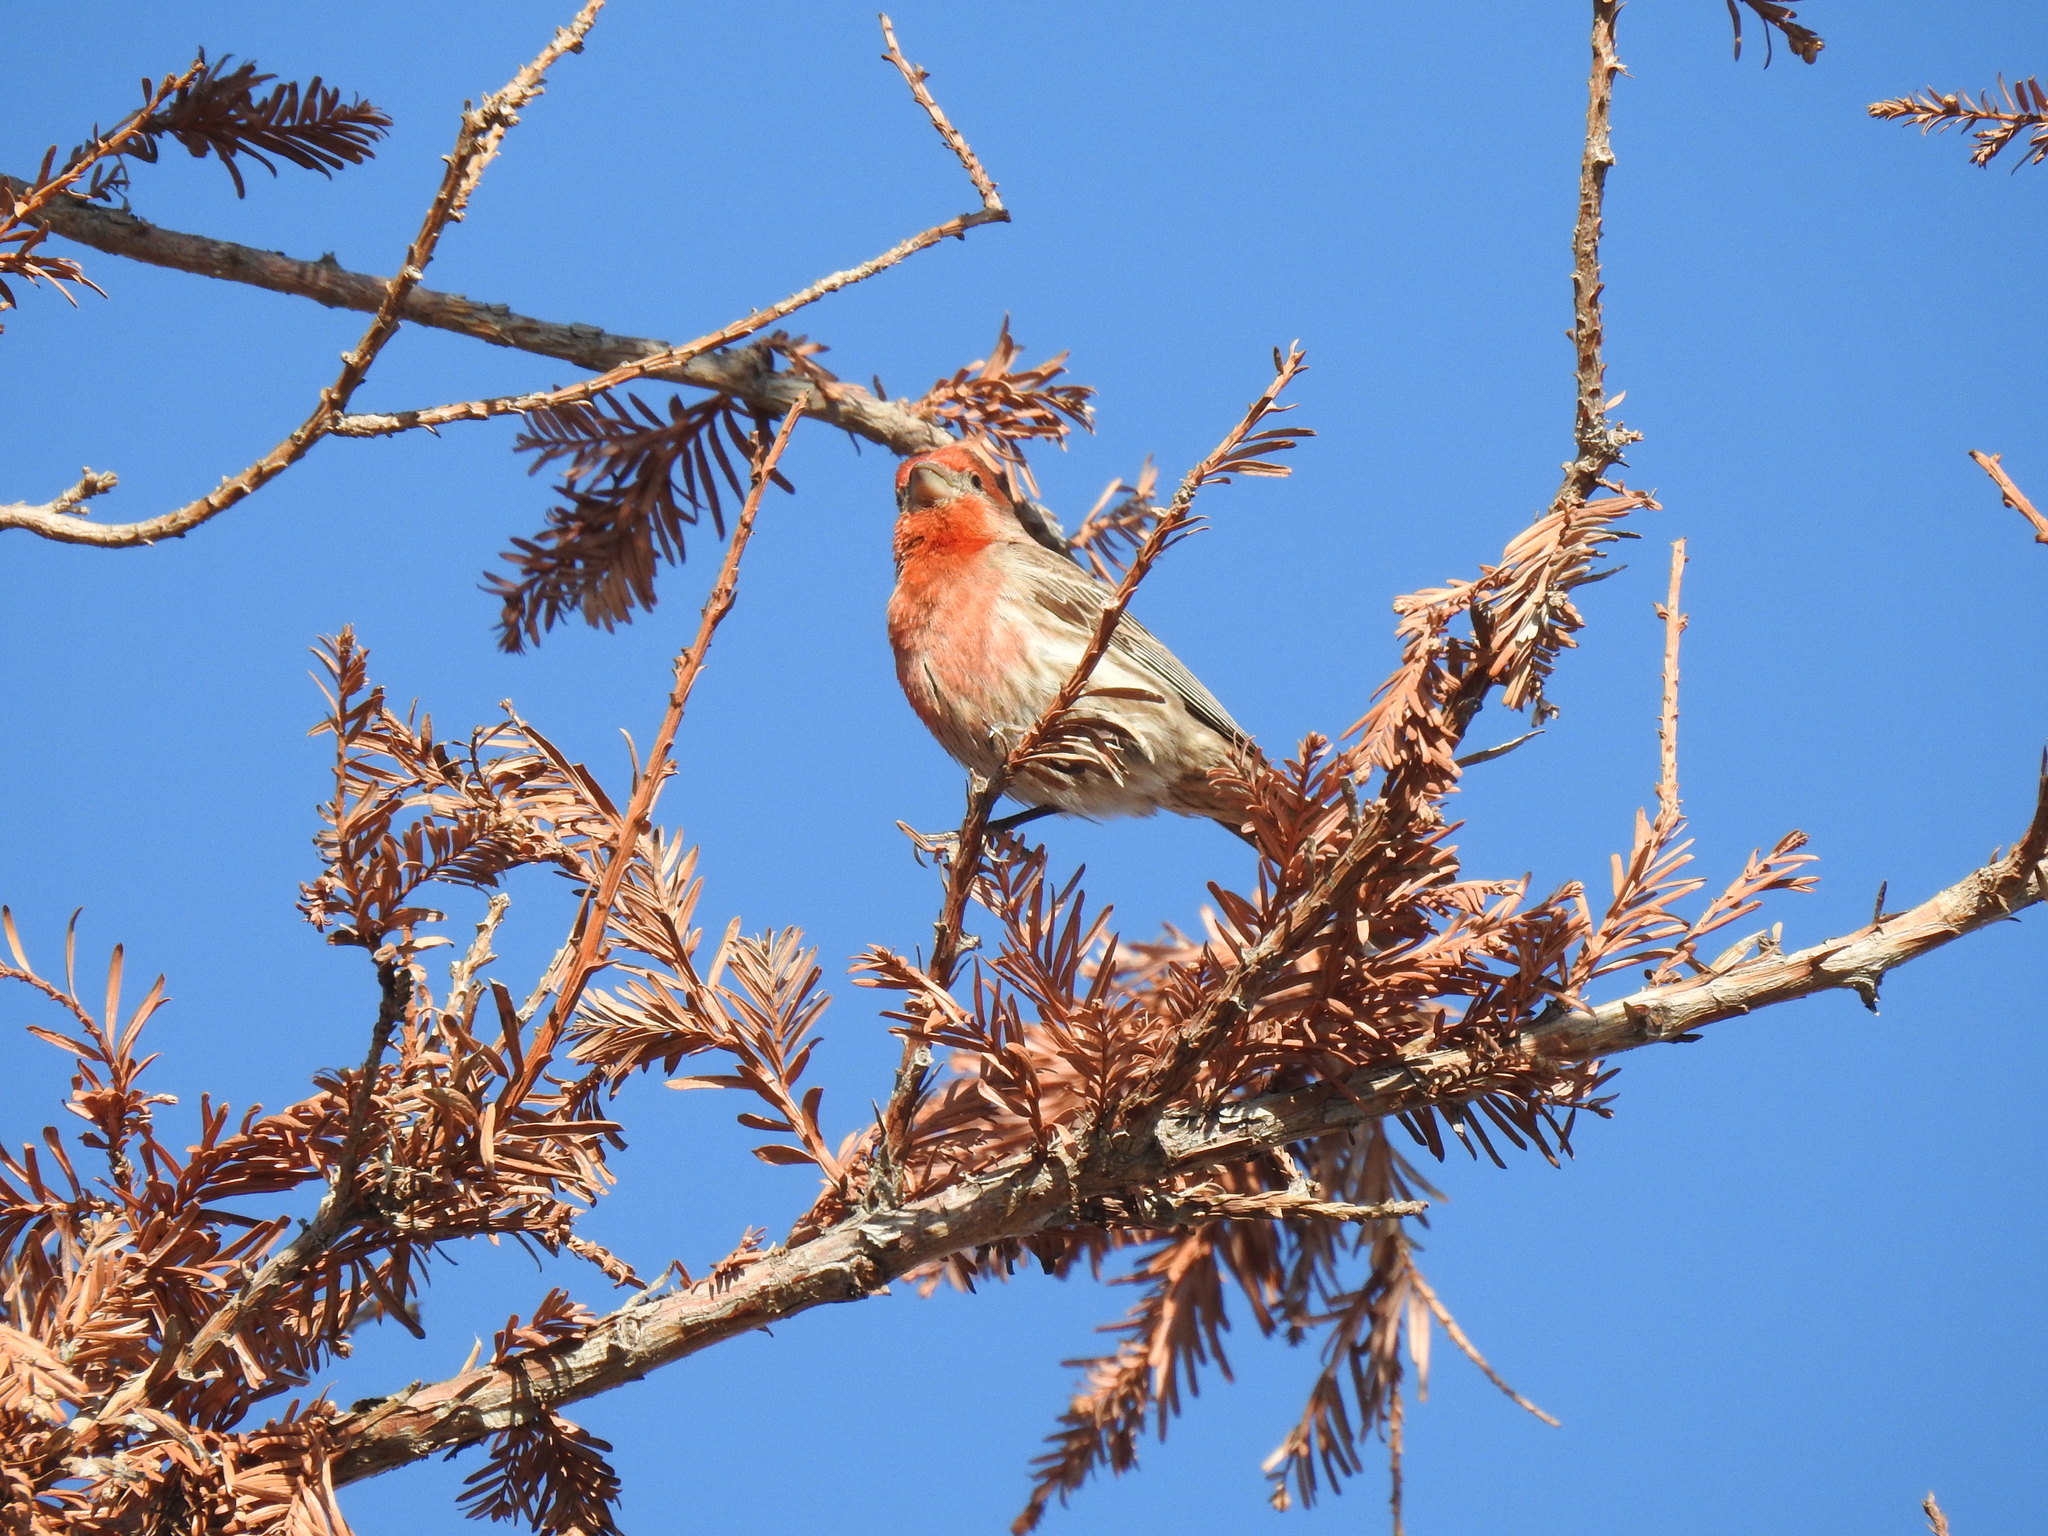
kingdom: Animalia
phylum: Chordata
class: Aves
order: Passeriformes
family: Fringillidae
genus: Haemorhous
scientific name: Haemorhous mexicanus
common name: House finch
